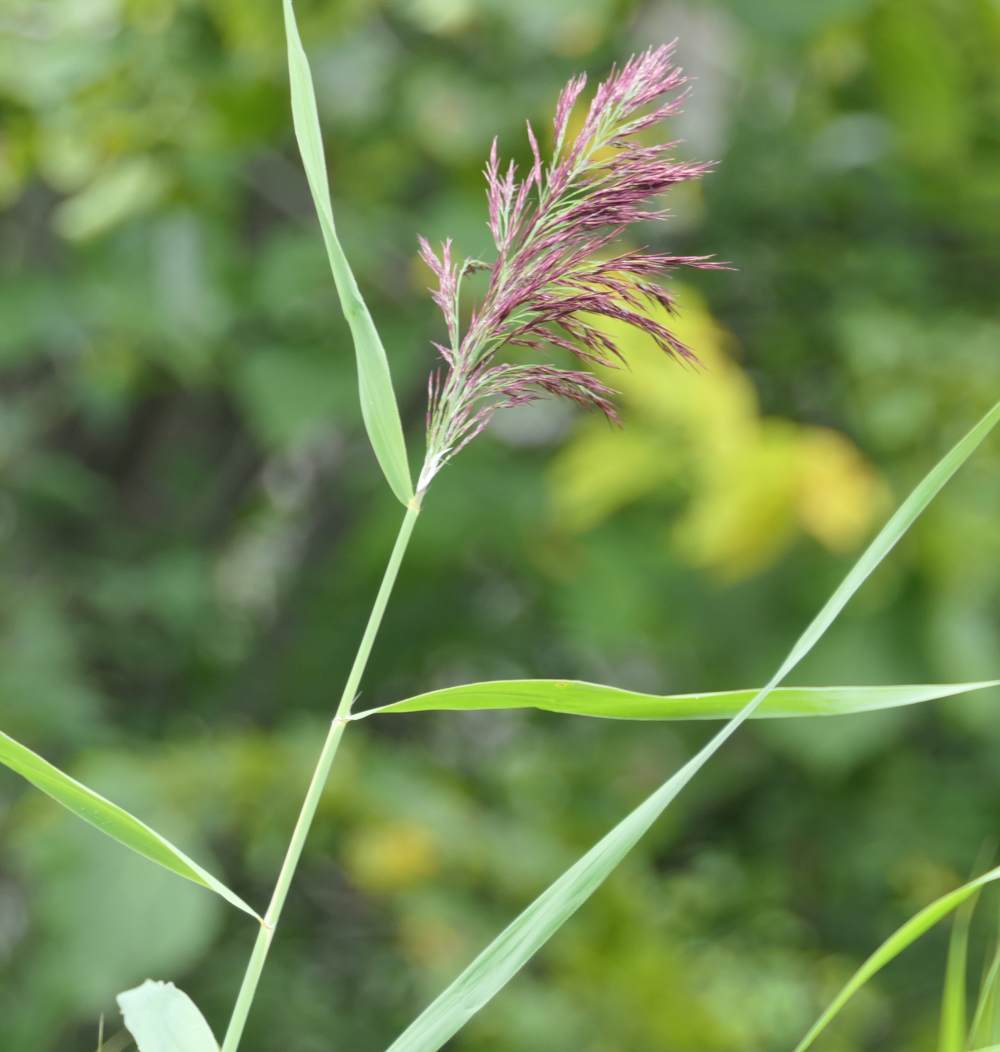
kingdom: Plantae
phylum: Tracheophyta
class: Liliopsida
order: Poales
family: Poaceae
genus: Phragmites
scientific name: Phragmites australis
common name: Common reed
